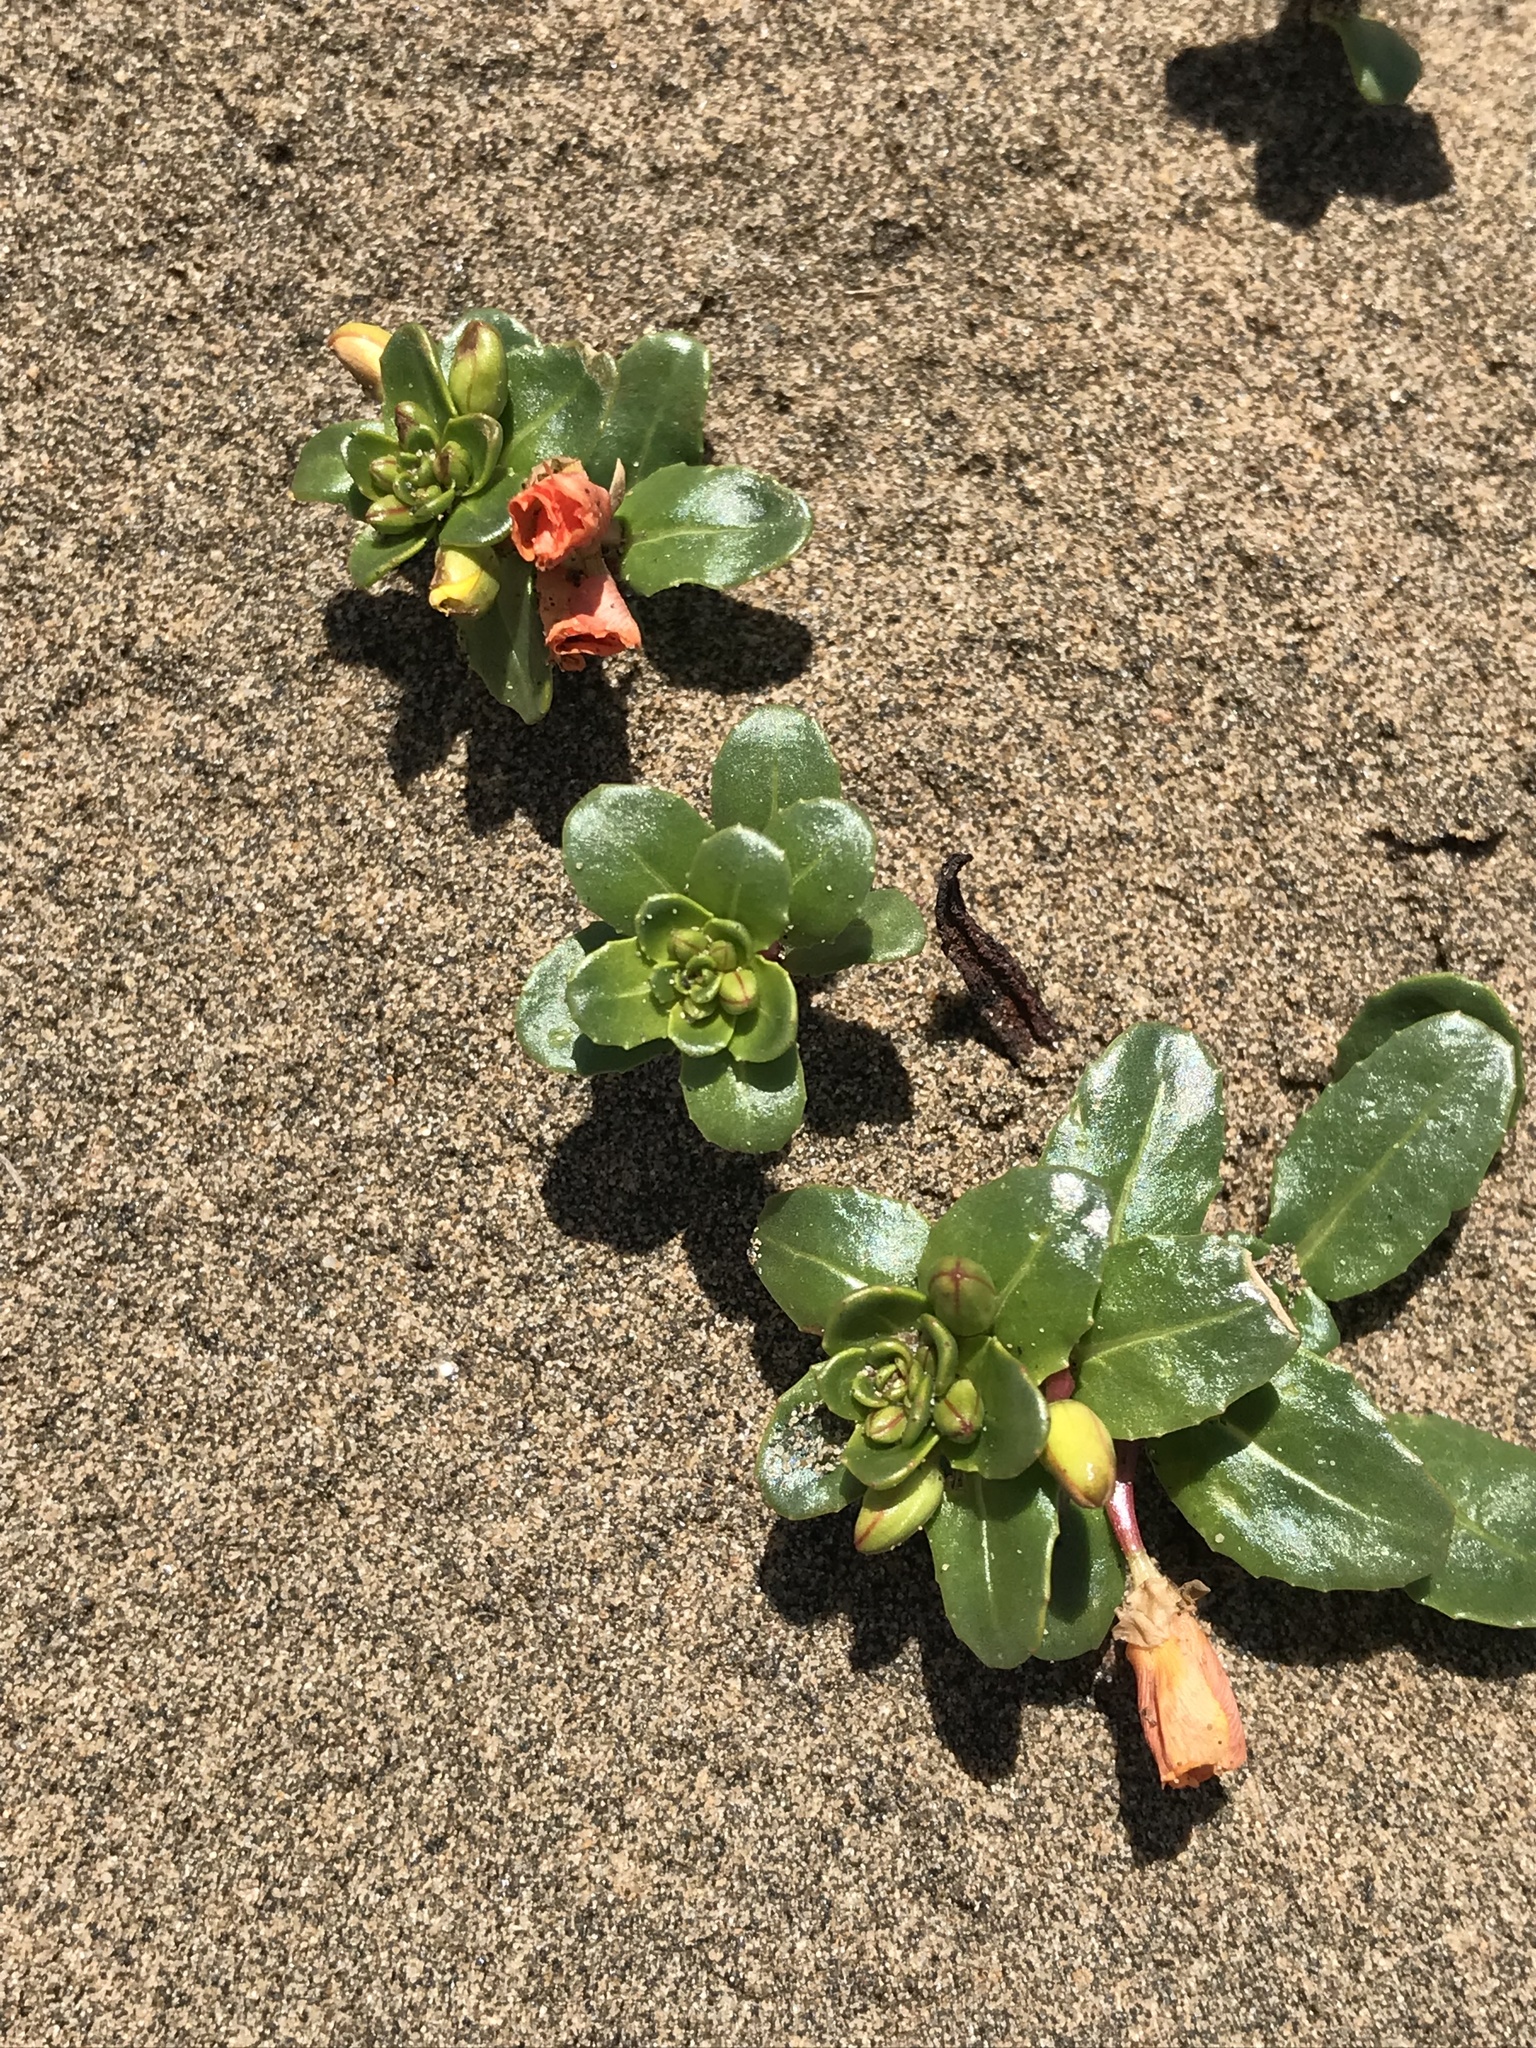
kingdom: Plantae
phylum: Tracheophyta
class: Magnoliopsida
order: Myrtales
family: Onagraceae
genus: Camissoniopsis
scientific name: Camissoniopsis cheiranthifolia
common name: Beach suncup
